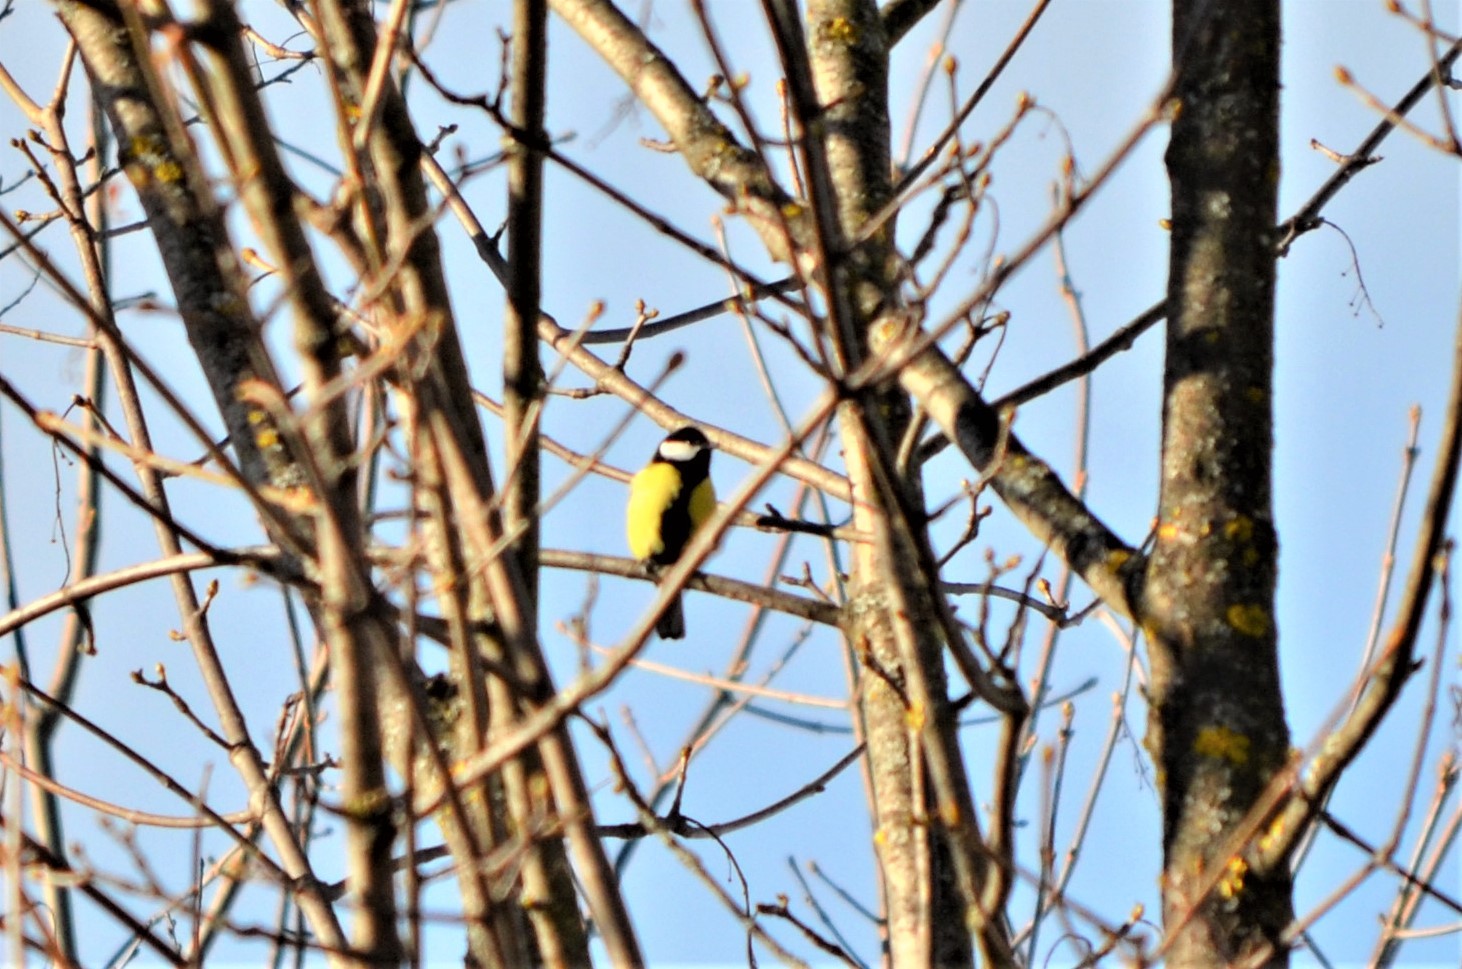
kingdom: Animalia
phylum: Chordata
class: Aves
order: Passeriformes
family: Paridae
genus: Parus
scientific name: Parus major
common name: Great tit
